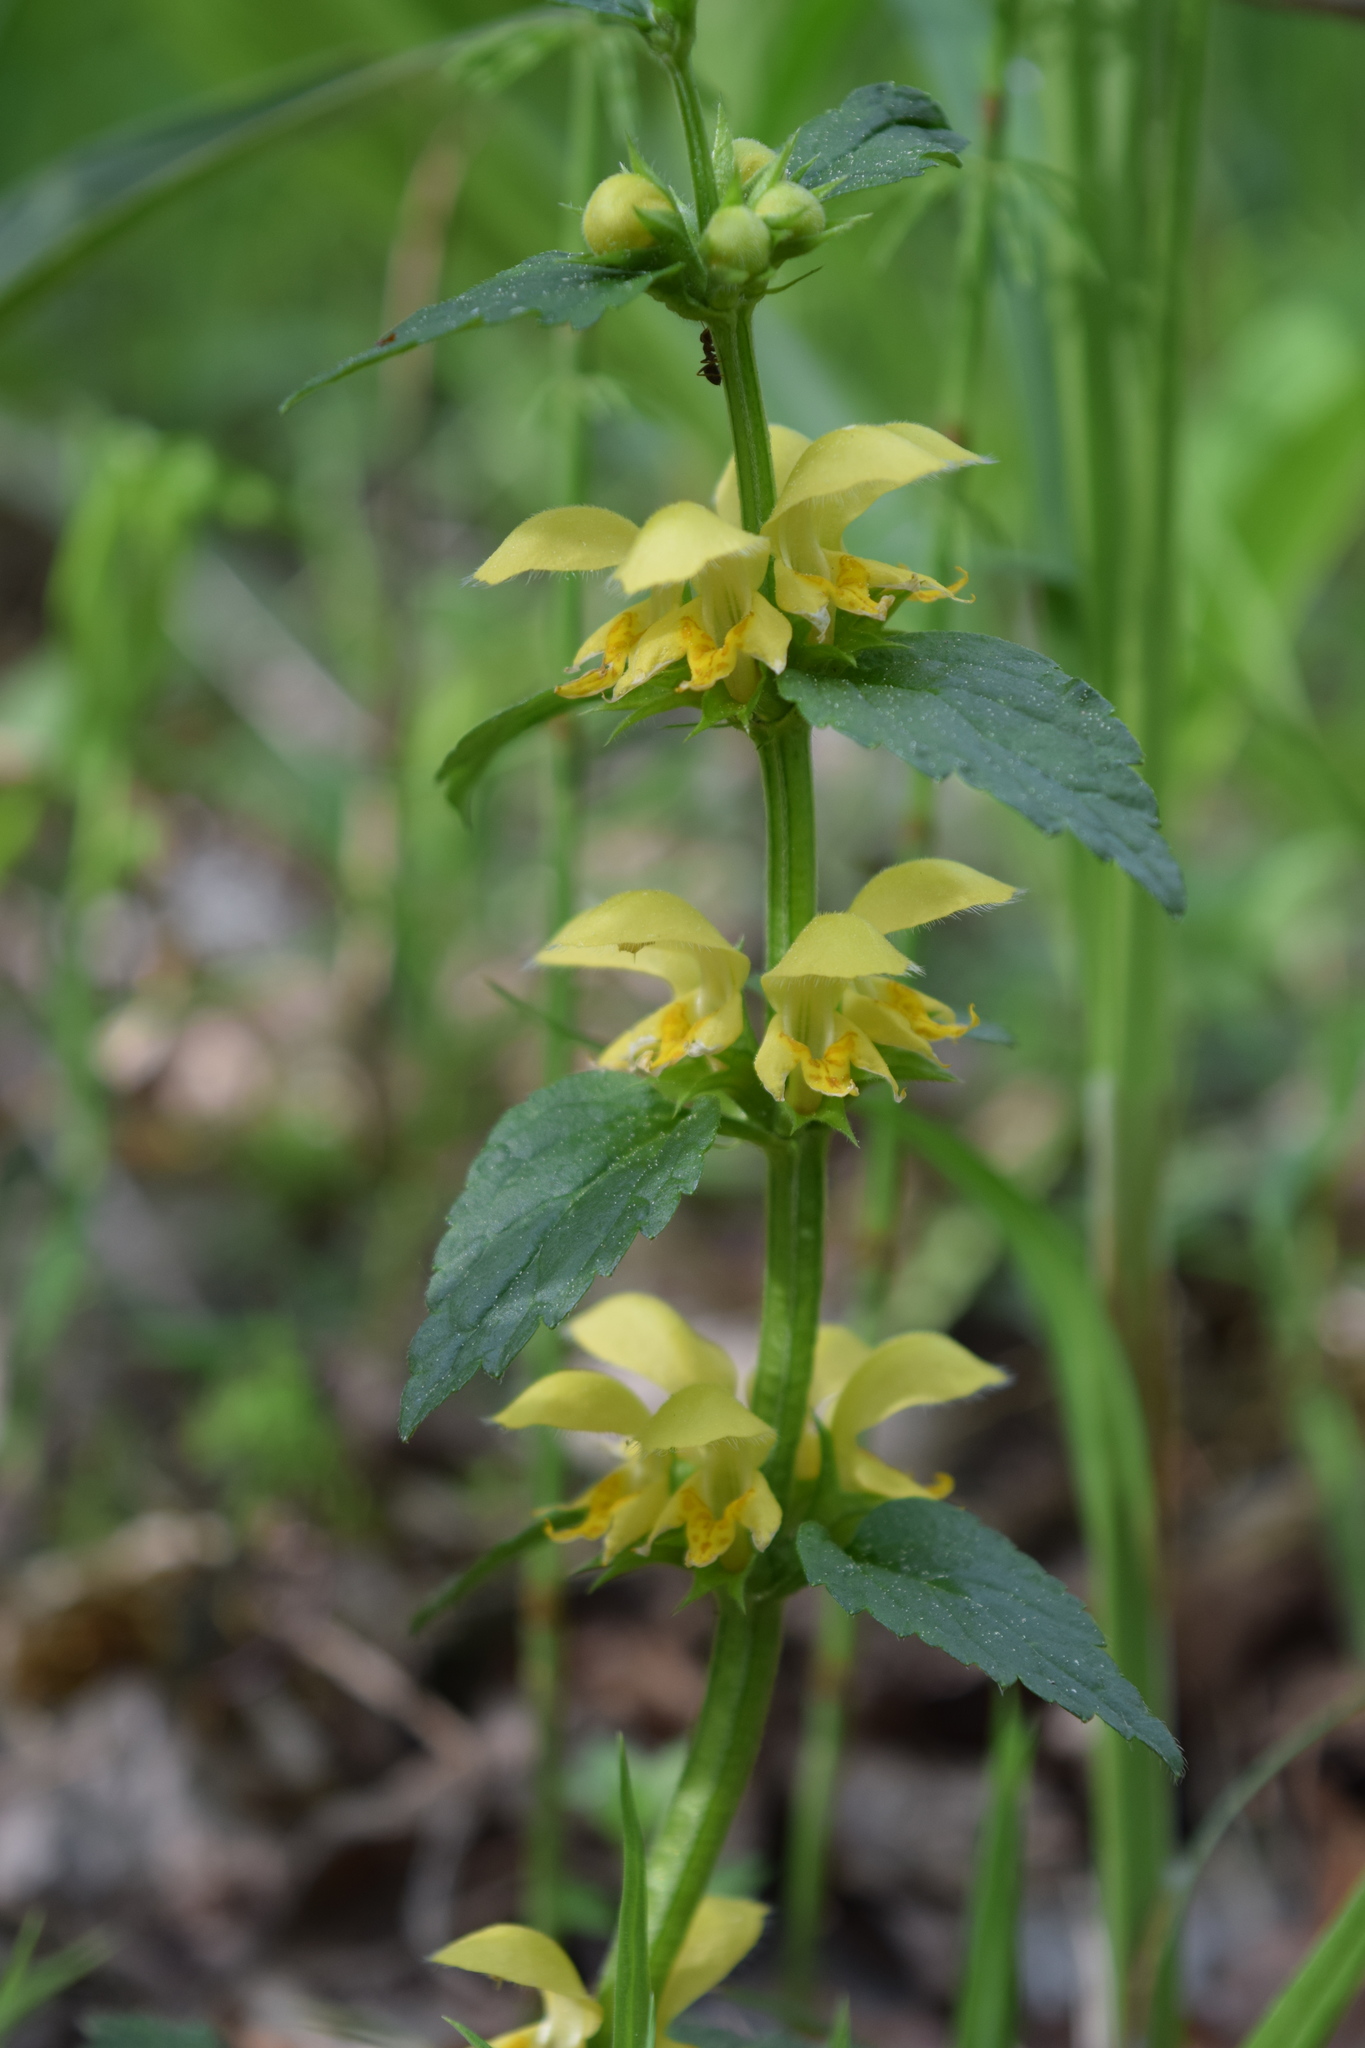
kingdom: Plantae
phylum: Tracheophyta
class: Magnoliopsida
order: Lamiales
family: Lamiaceae
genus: Lamium
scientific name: Lamium galeobdolon
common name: Yellow archangel
